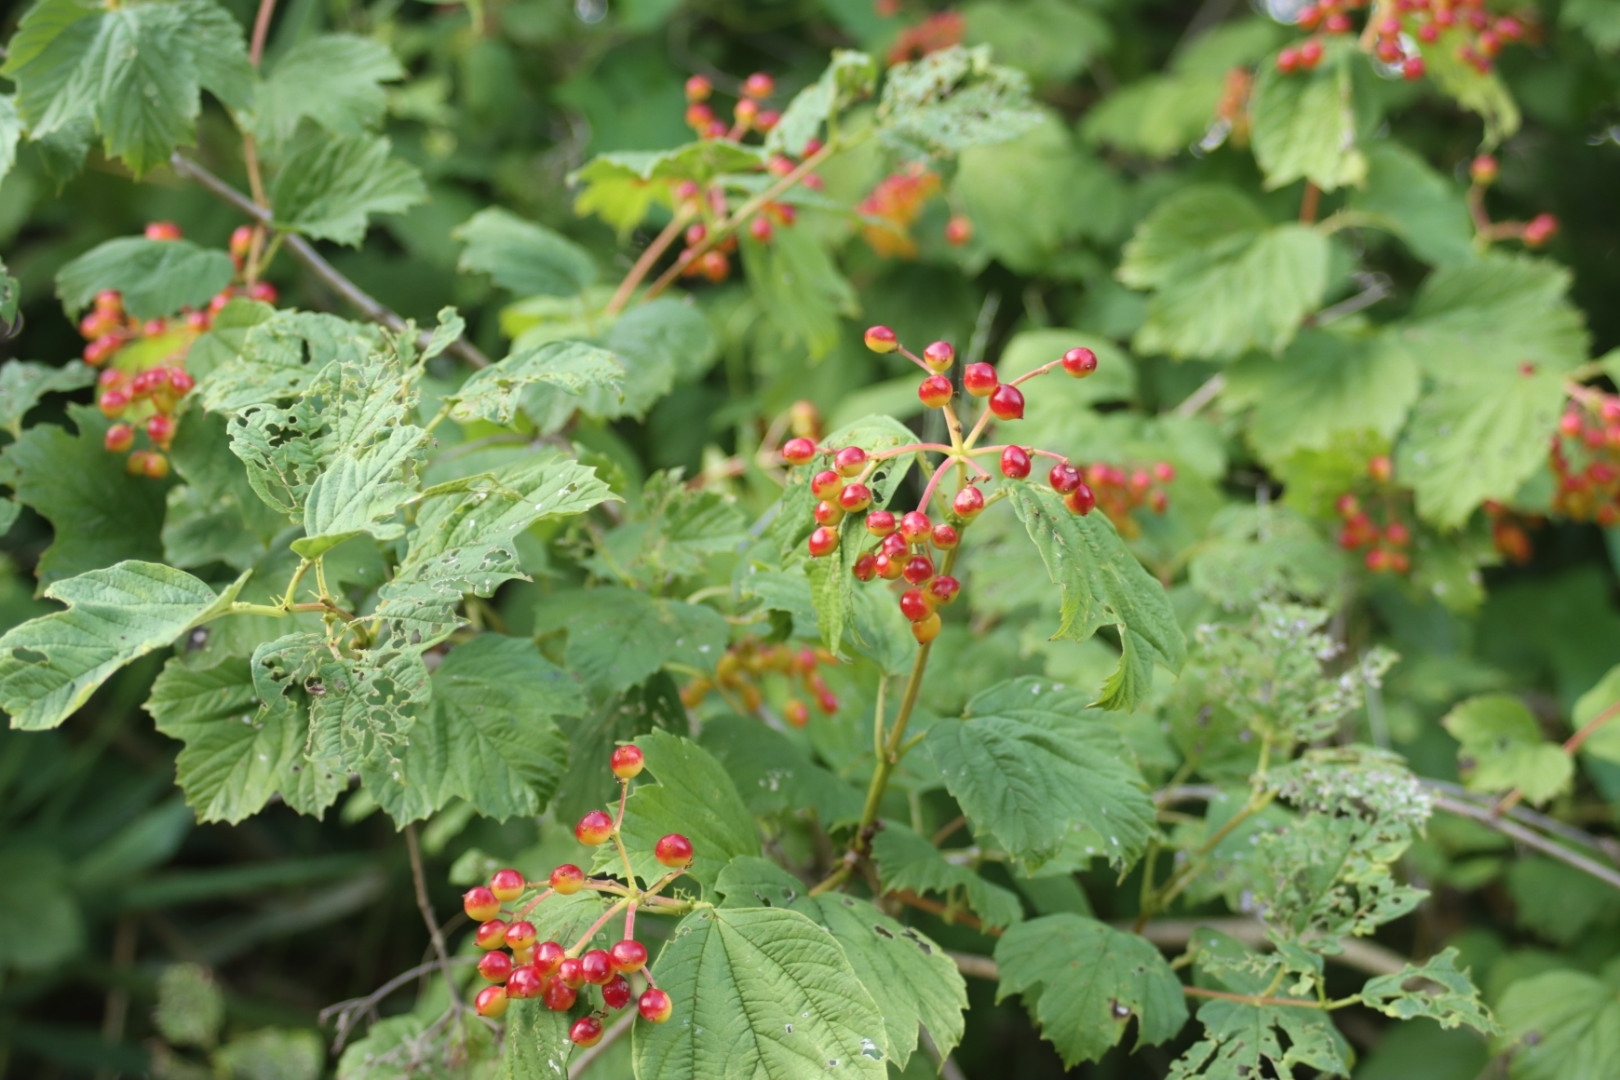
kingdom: Plantae
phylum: Tracheophyta
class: Magnoliopsida
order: Dipsacales
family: Viburnaceae
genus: Viburnum
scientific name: Viburnum opulus
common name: Guelder-rose
